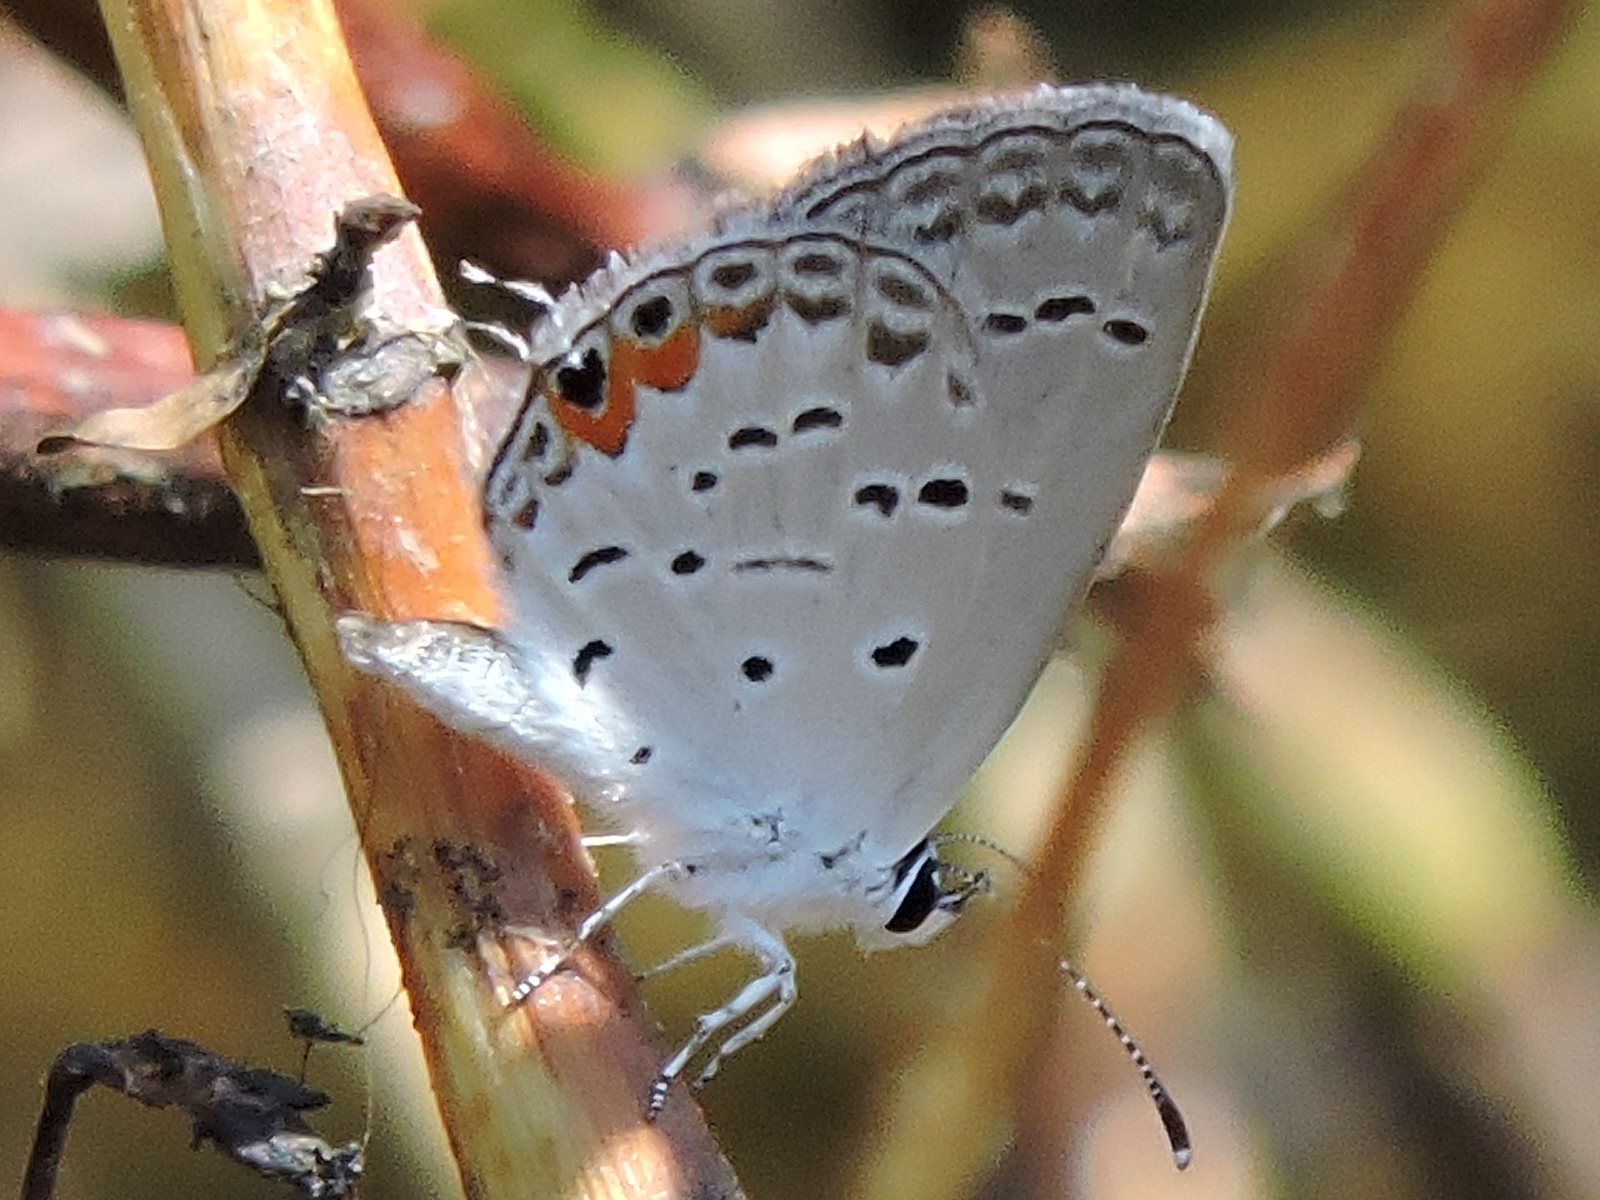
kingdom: Animalia
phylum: Arthropoda
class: Insecta
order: Lepidoptera
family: Lycaenidae
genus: Elkalyce
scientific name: Elkalyce comyntas
